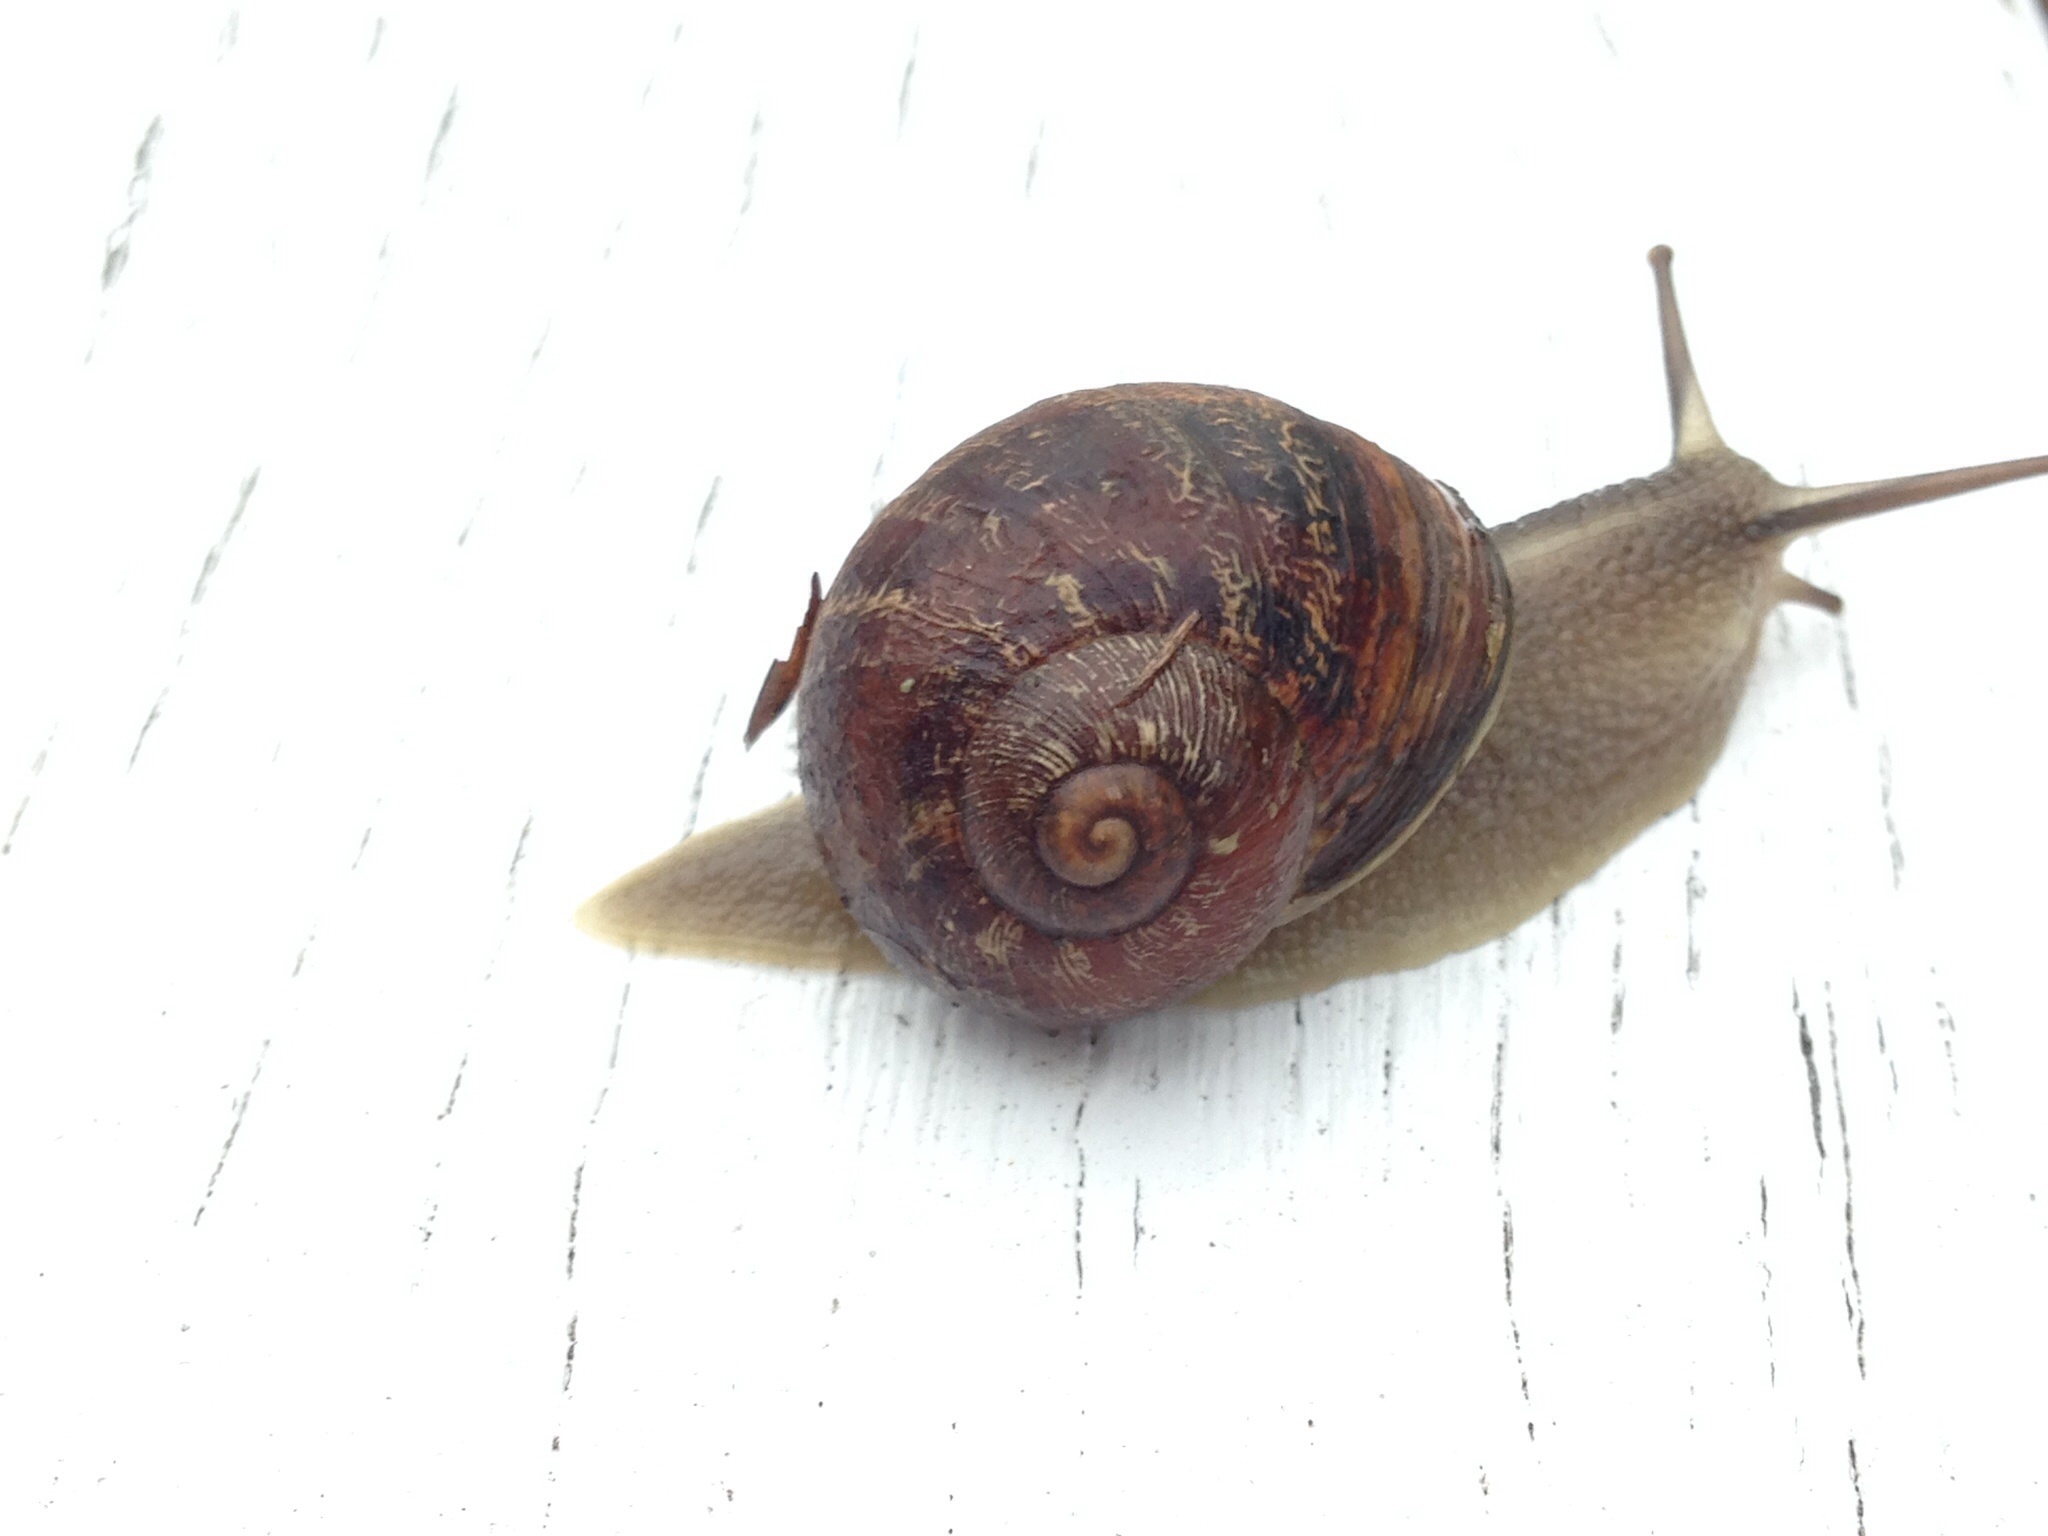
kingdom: Animalia
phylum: Mollusca
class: Gastropoda
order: Stylommatophora
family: Helicidae
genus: Cornu
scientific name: Cornu aspersum
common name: Brown garden snail
